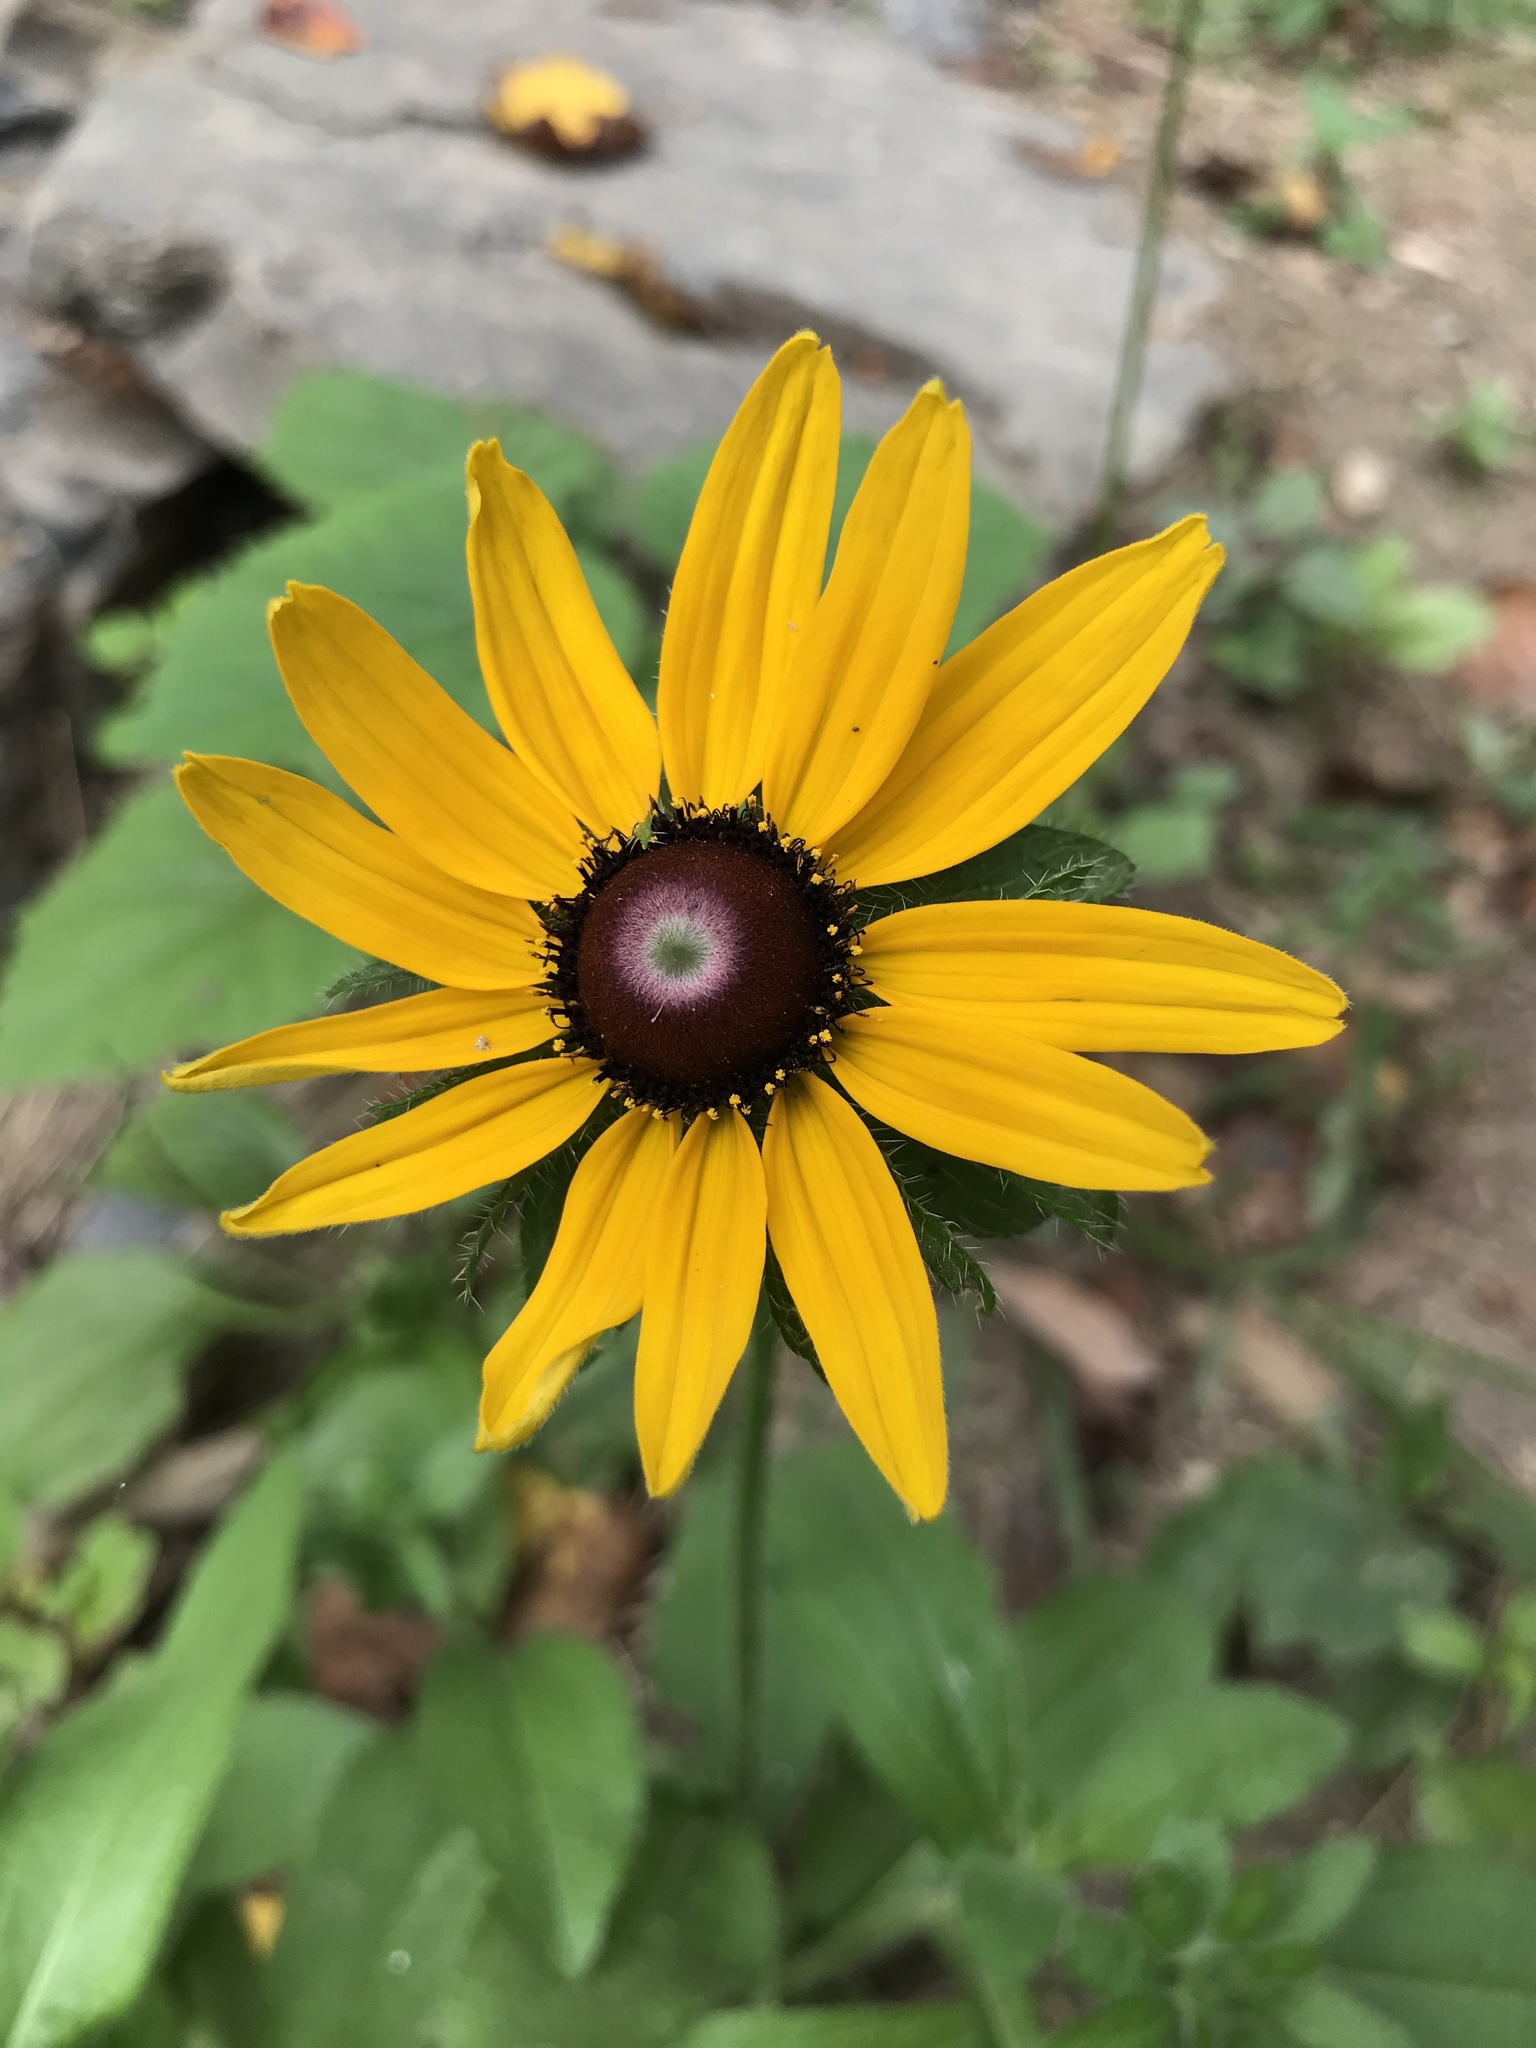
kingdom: Plantae
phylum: Tracheophyta
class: Magnoliopsida
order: Asterales
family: Asteraceae
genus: Rudbeckia
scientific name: Rudbeckia hirta
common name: Black-eyed-susan
